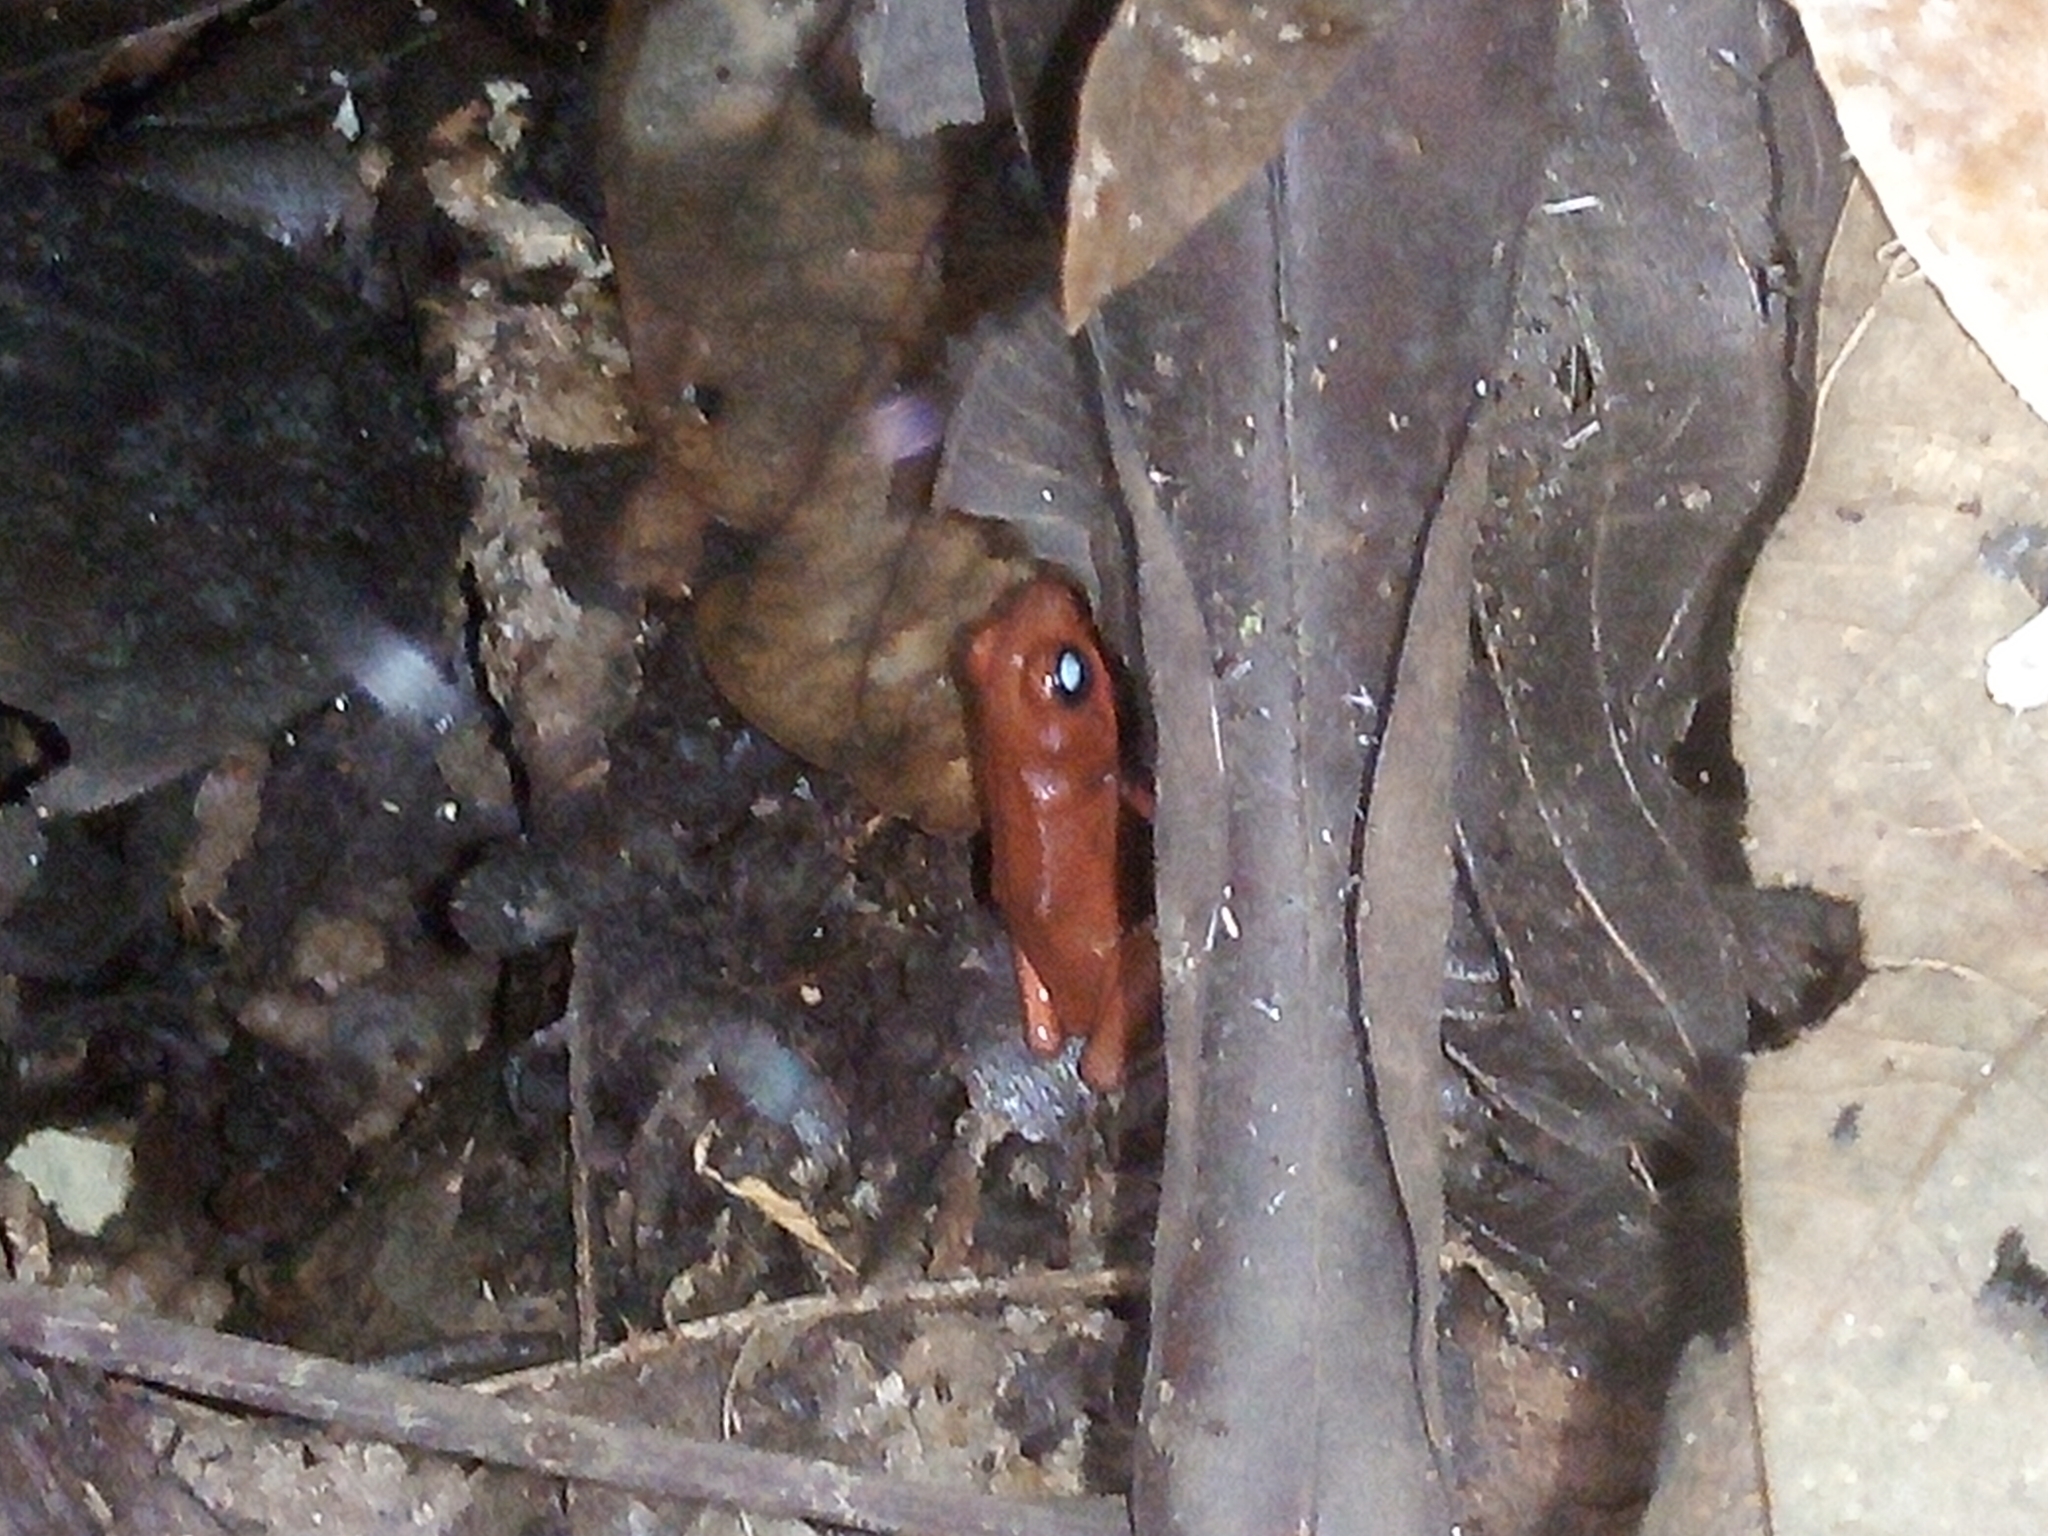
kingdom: Animalia
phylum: Chordata
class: Amphibia
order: Anura
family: Dendrobatidae
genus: Oophaga
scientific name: Oophaga pumilio
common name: Flaming poison frog
